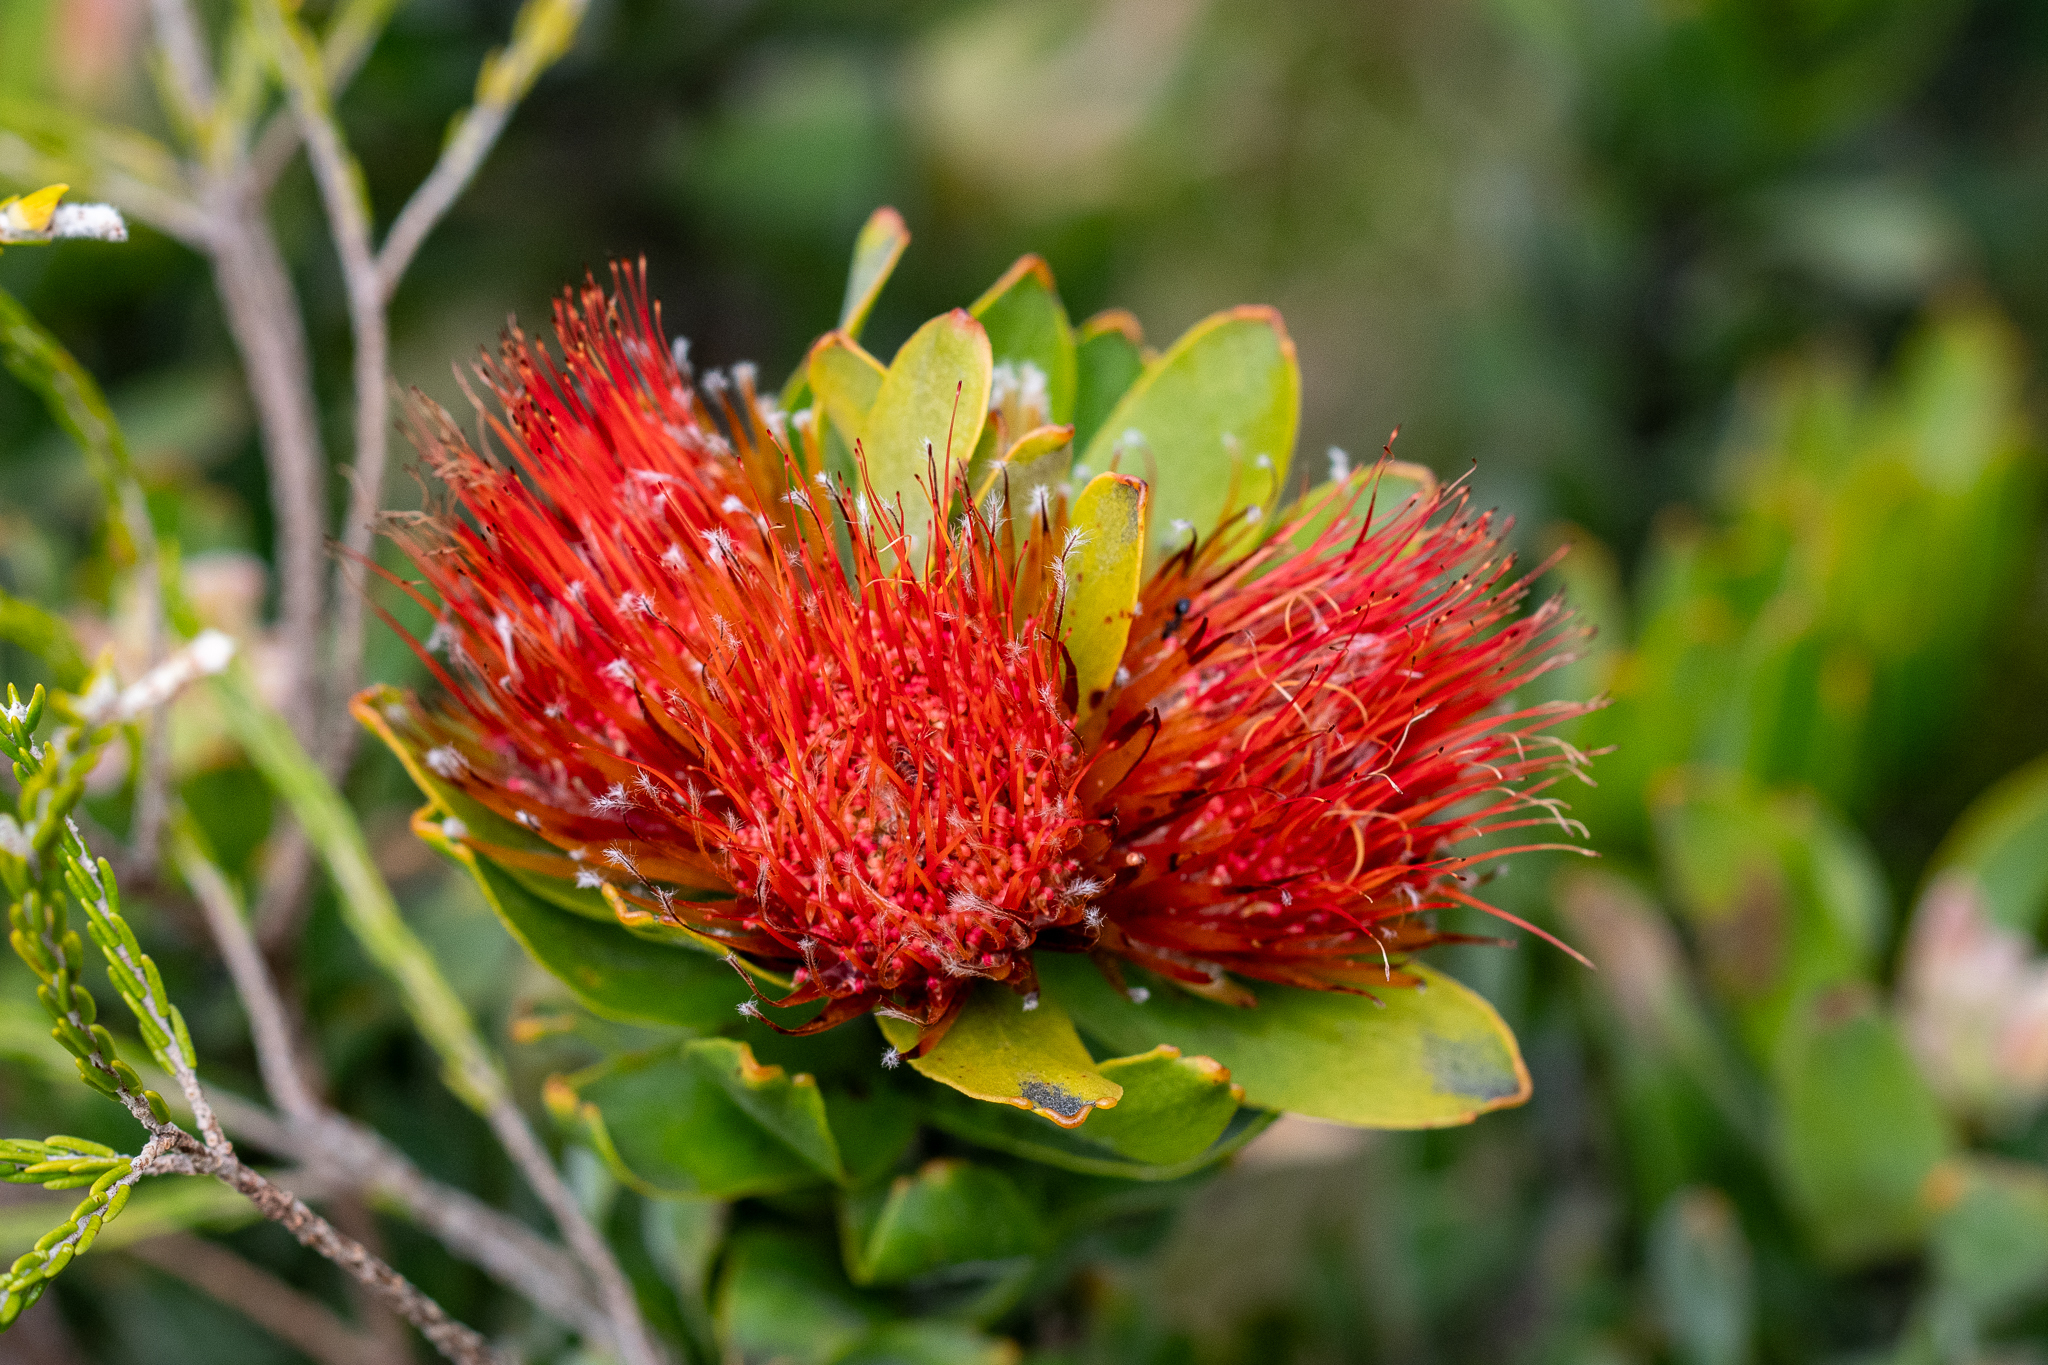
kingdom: Plantae
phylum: Tracheophyta
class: Magnoliopsida
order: Proteales
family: Proteaceae
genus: Leucospermum
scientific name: Leucospermum oleifolium
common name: Matches
